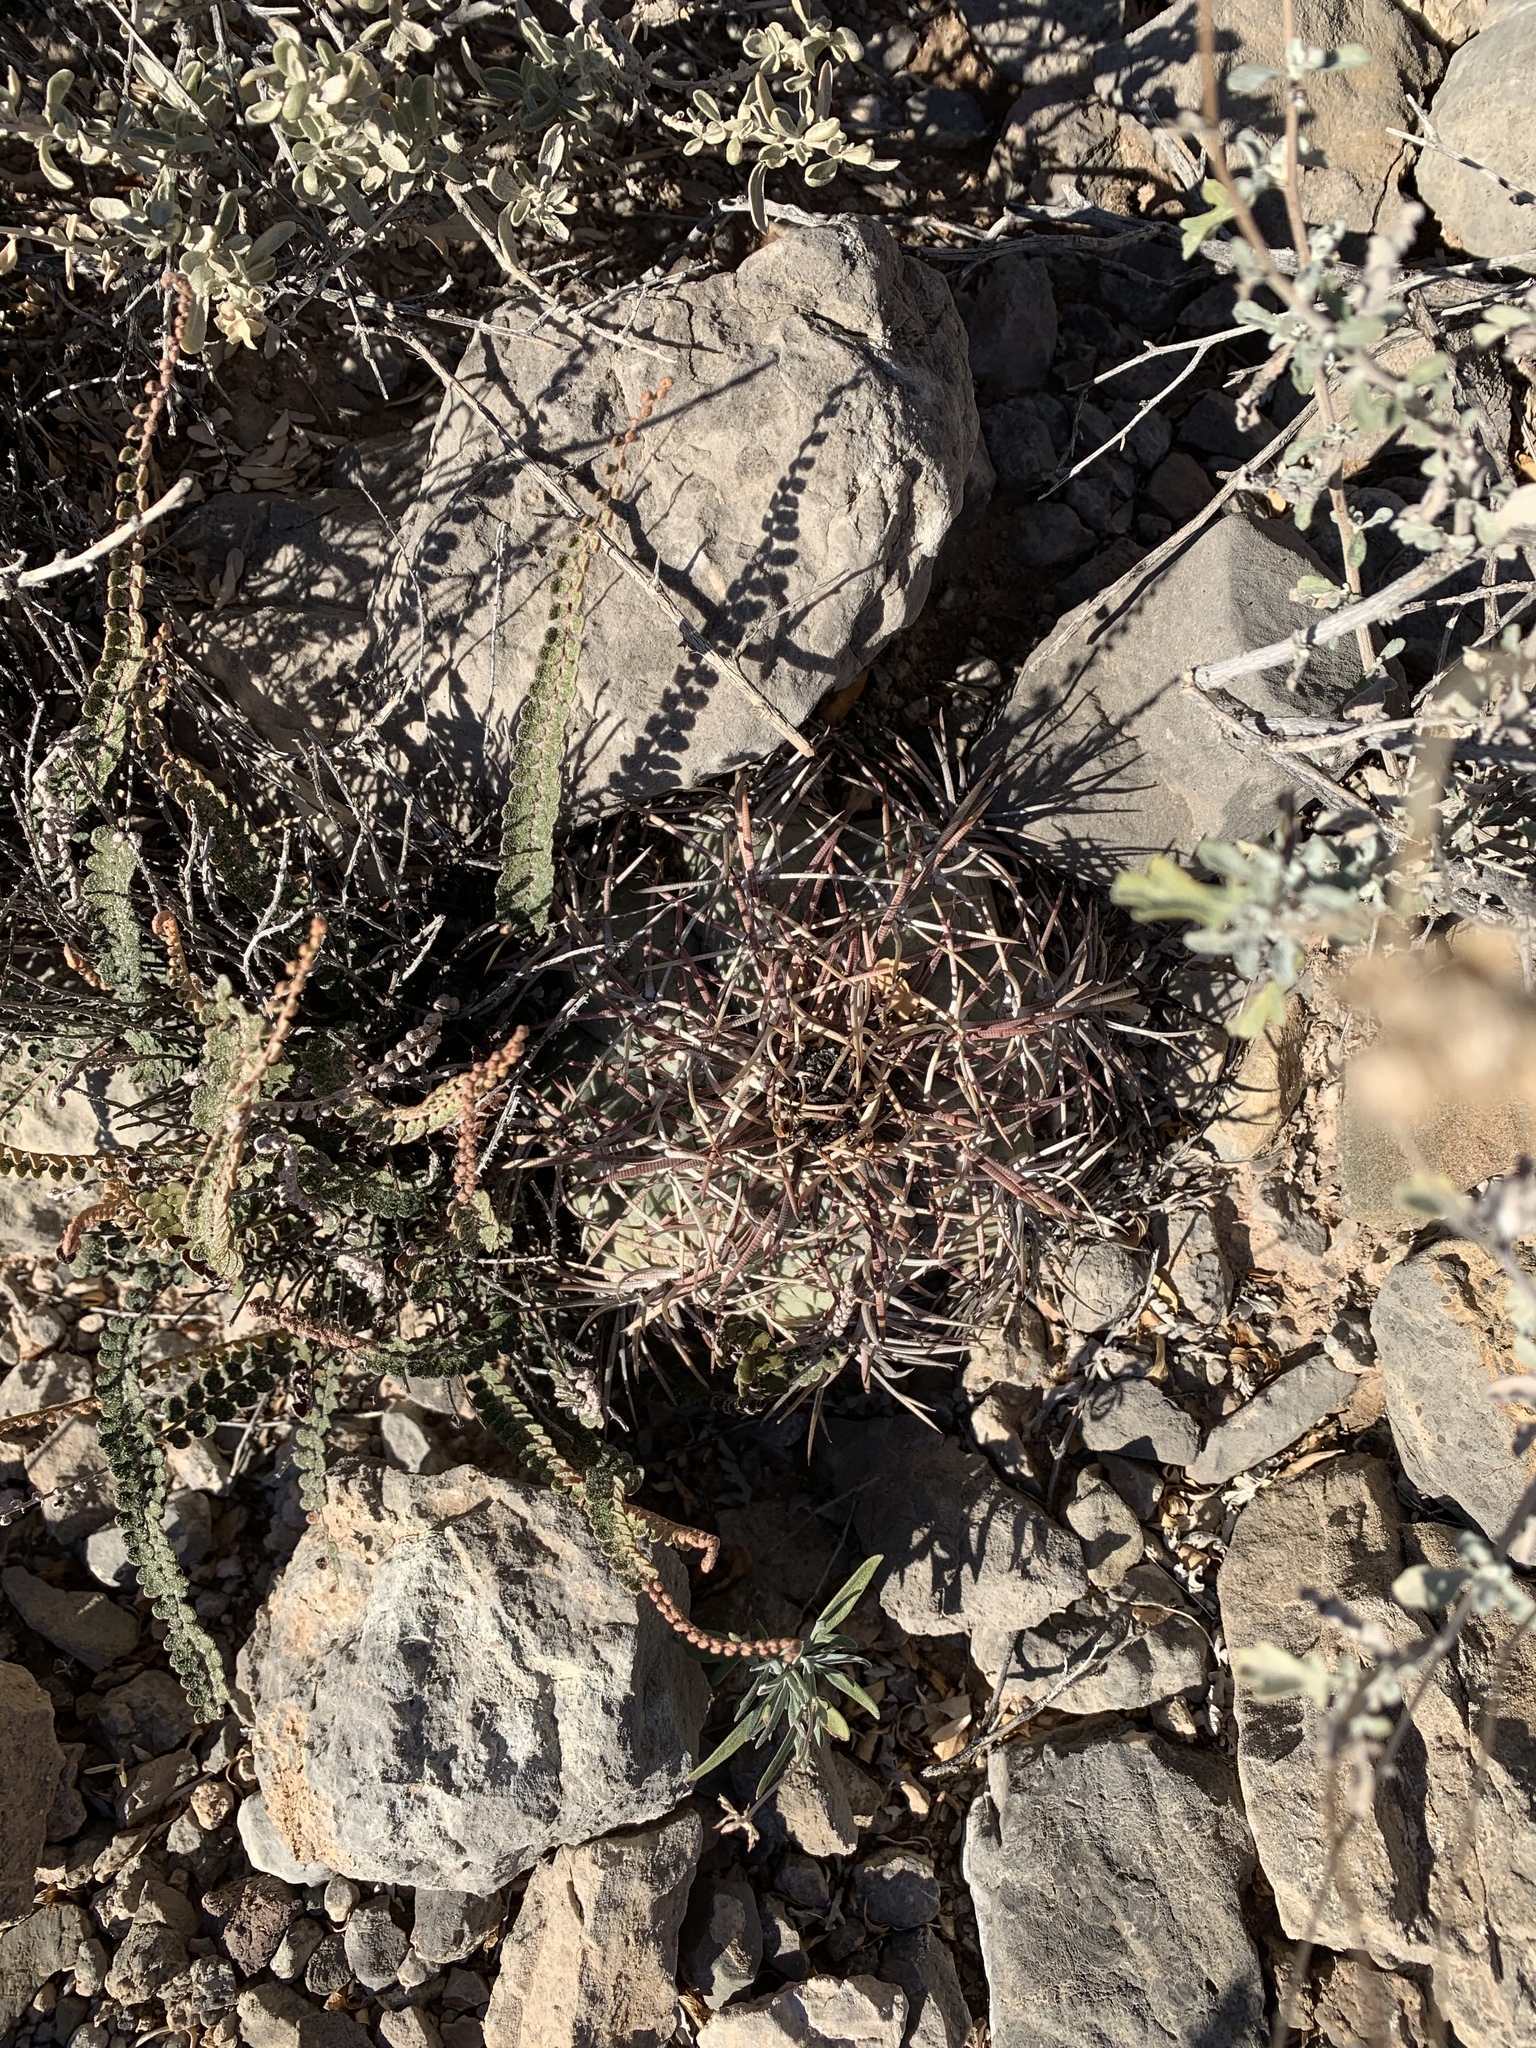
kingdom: Plantae
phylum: Tracheophyta
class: Magnoliopsida
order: Caryophyllales
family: Cactaceae
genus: Echinocactus
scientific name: Echinocactus horizonthalonius
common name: Devilshead
